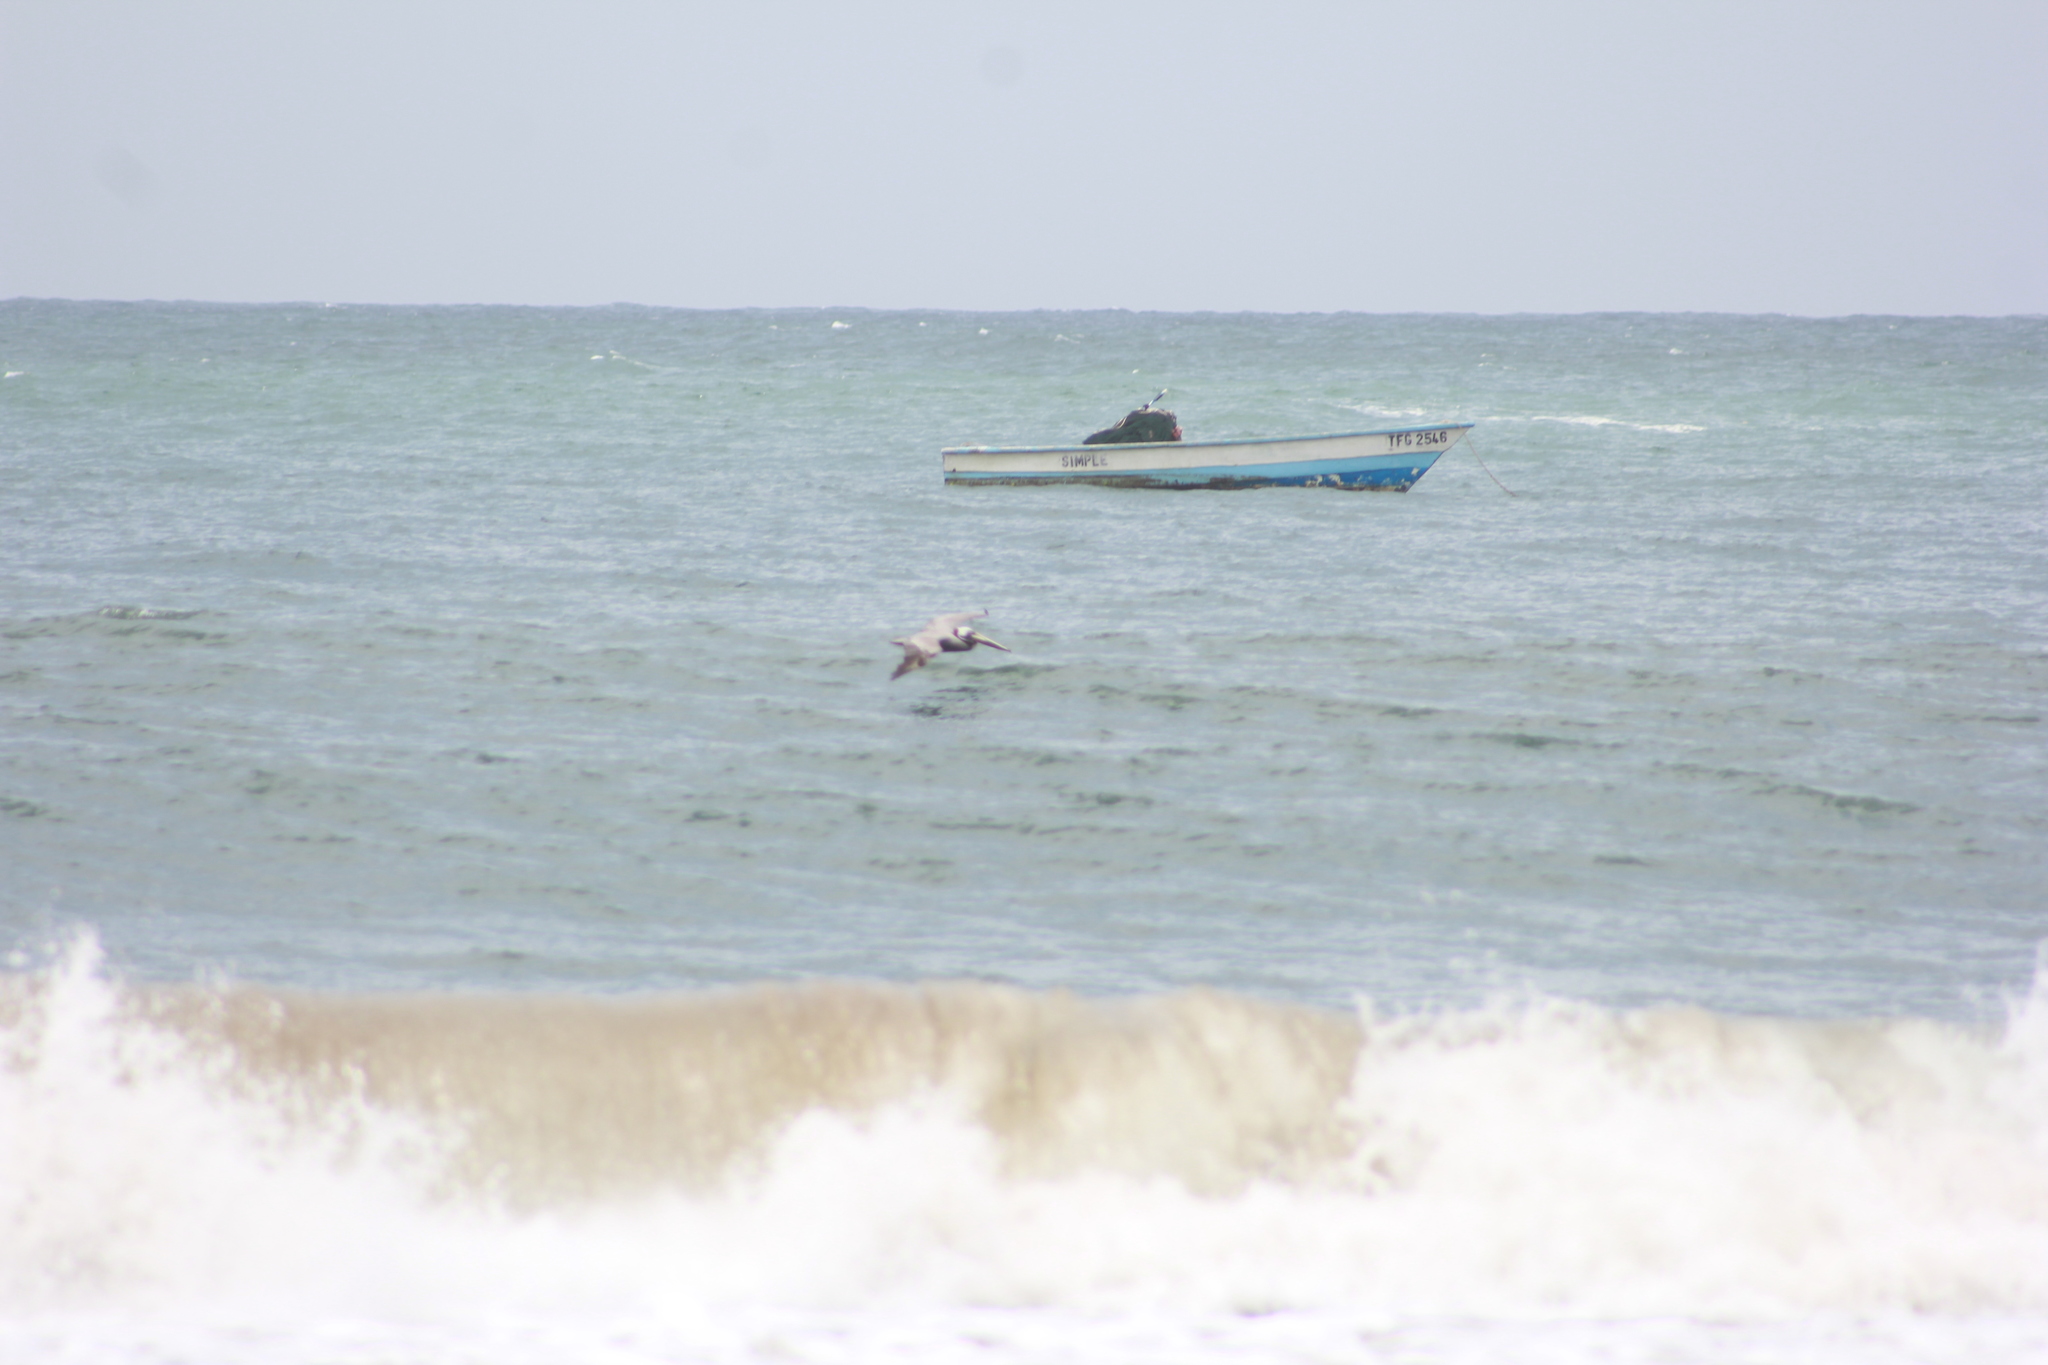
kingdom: Animalia
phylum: Chordata
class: Aves
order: Pelecaniformes
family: Pelecanidae
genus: Pelecanus
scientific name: Pelecanus occidentalis
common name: Brown pelican
